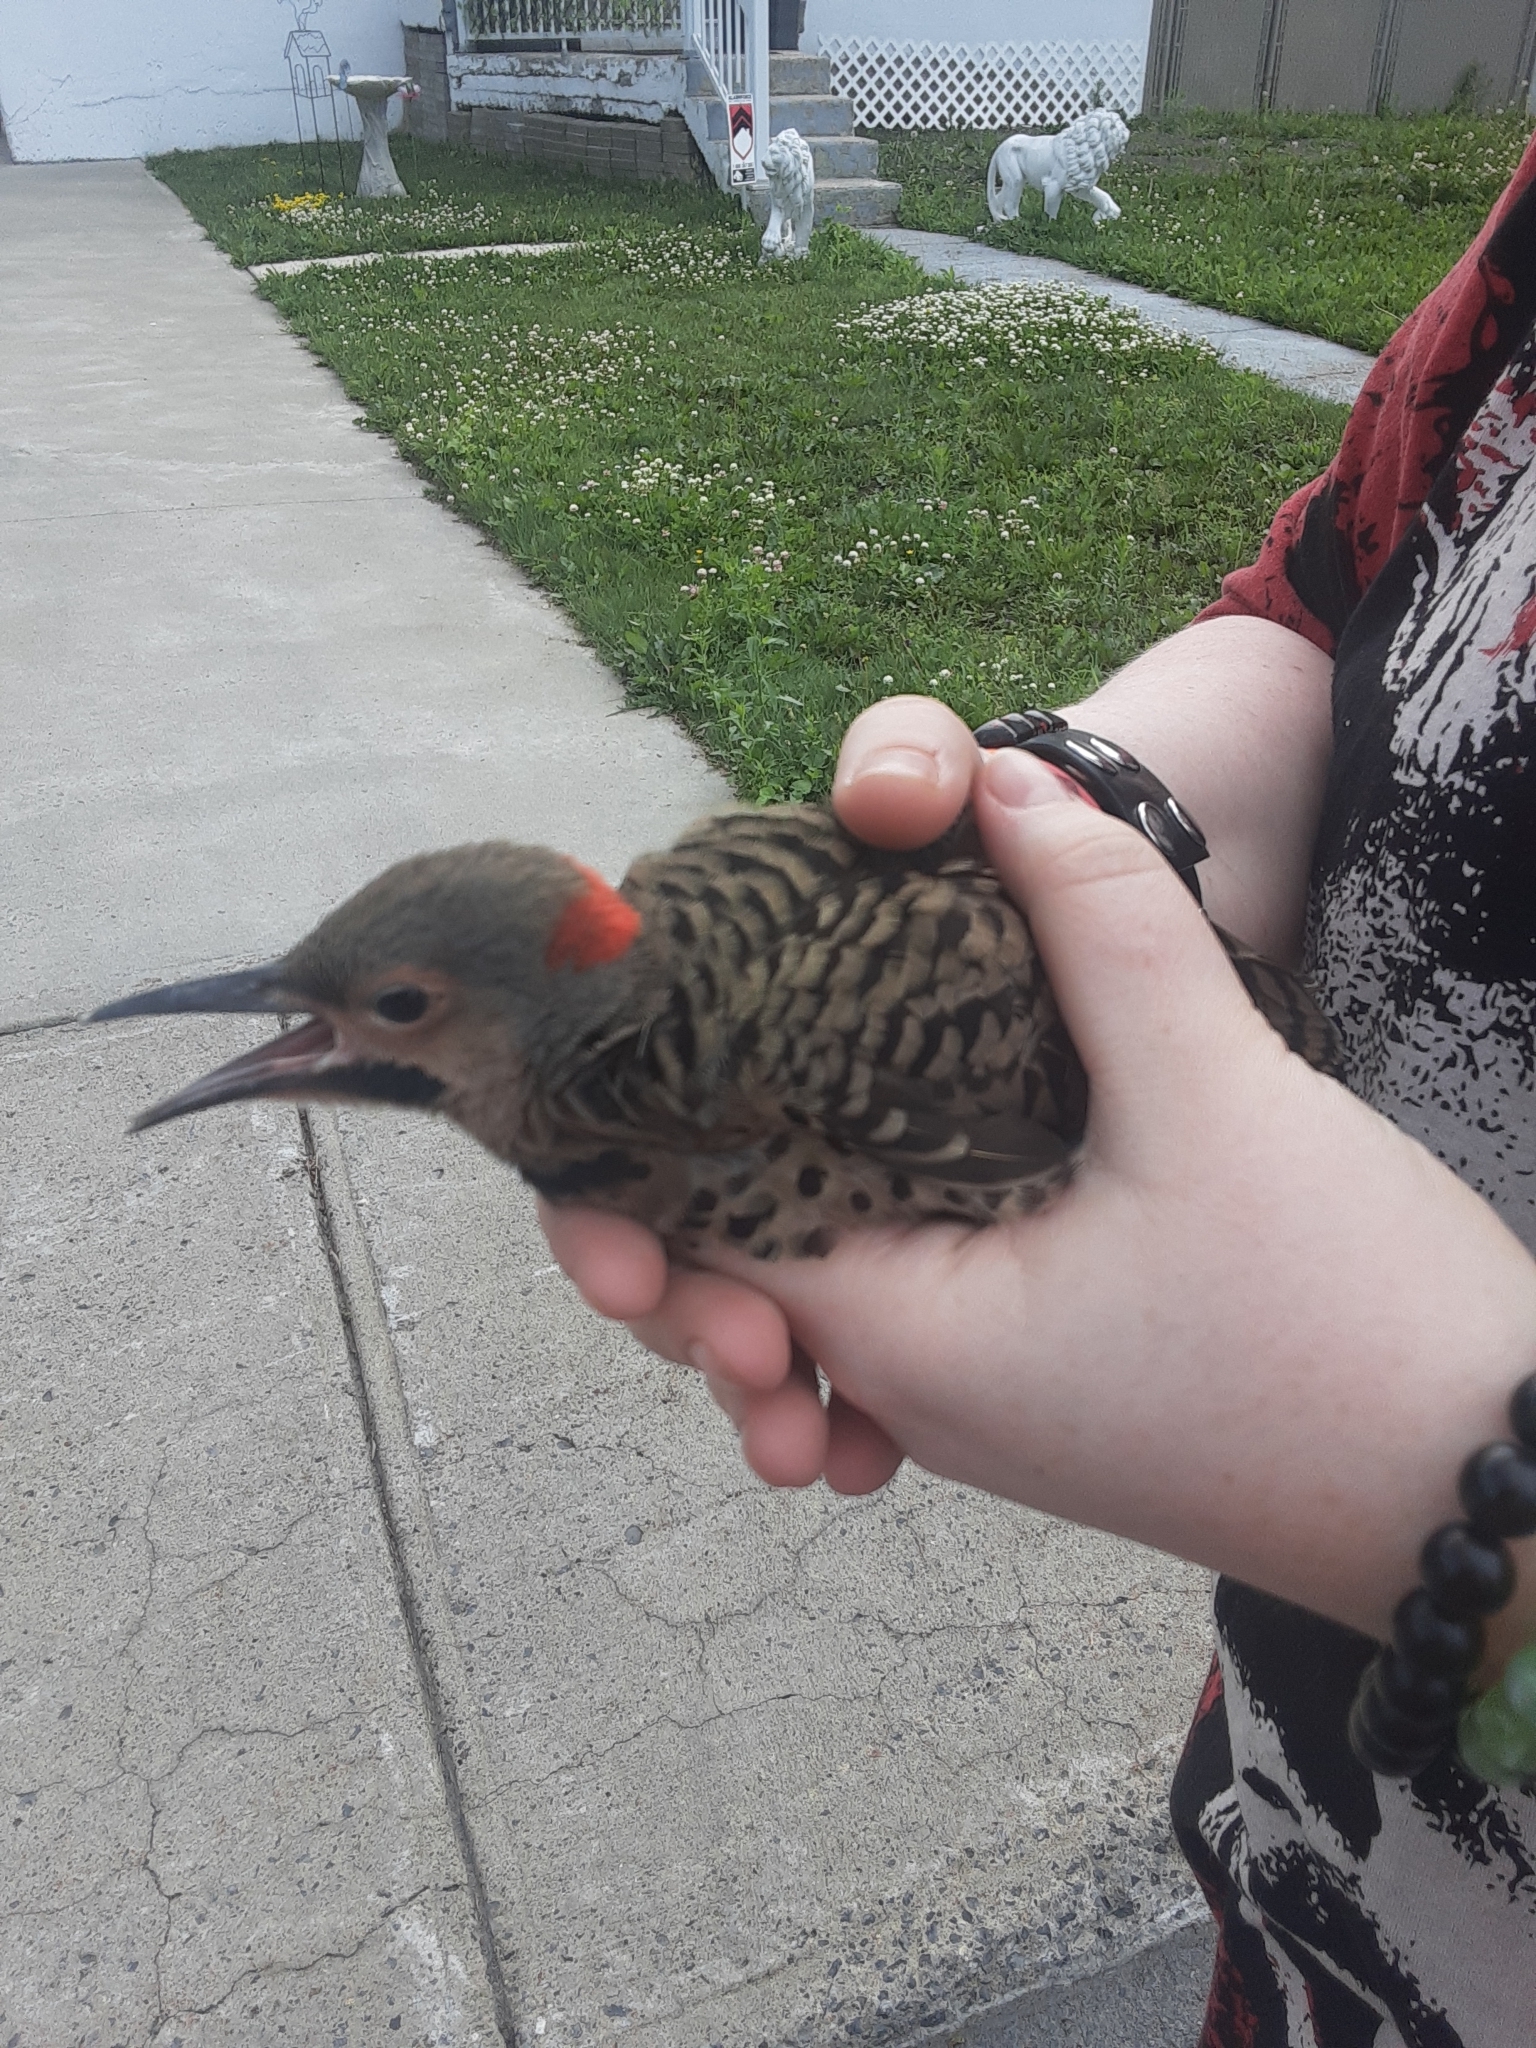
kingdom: Animalia
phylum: Chordata
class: Aves
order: Piciformes
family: Picidae
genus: Colaptes
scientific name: Colaptes auratus
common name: Northern flicker
